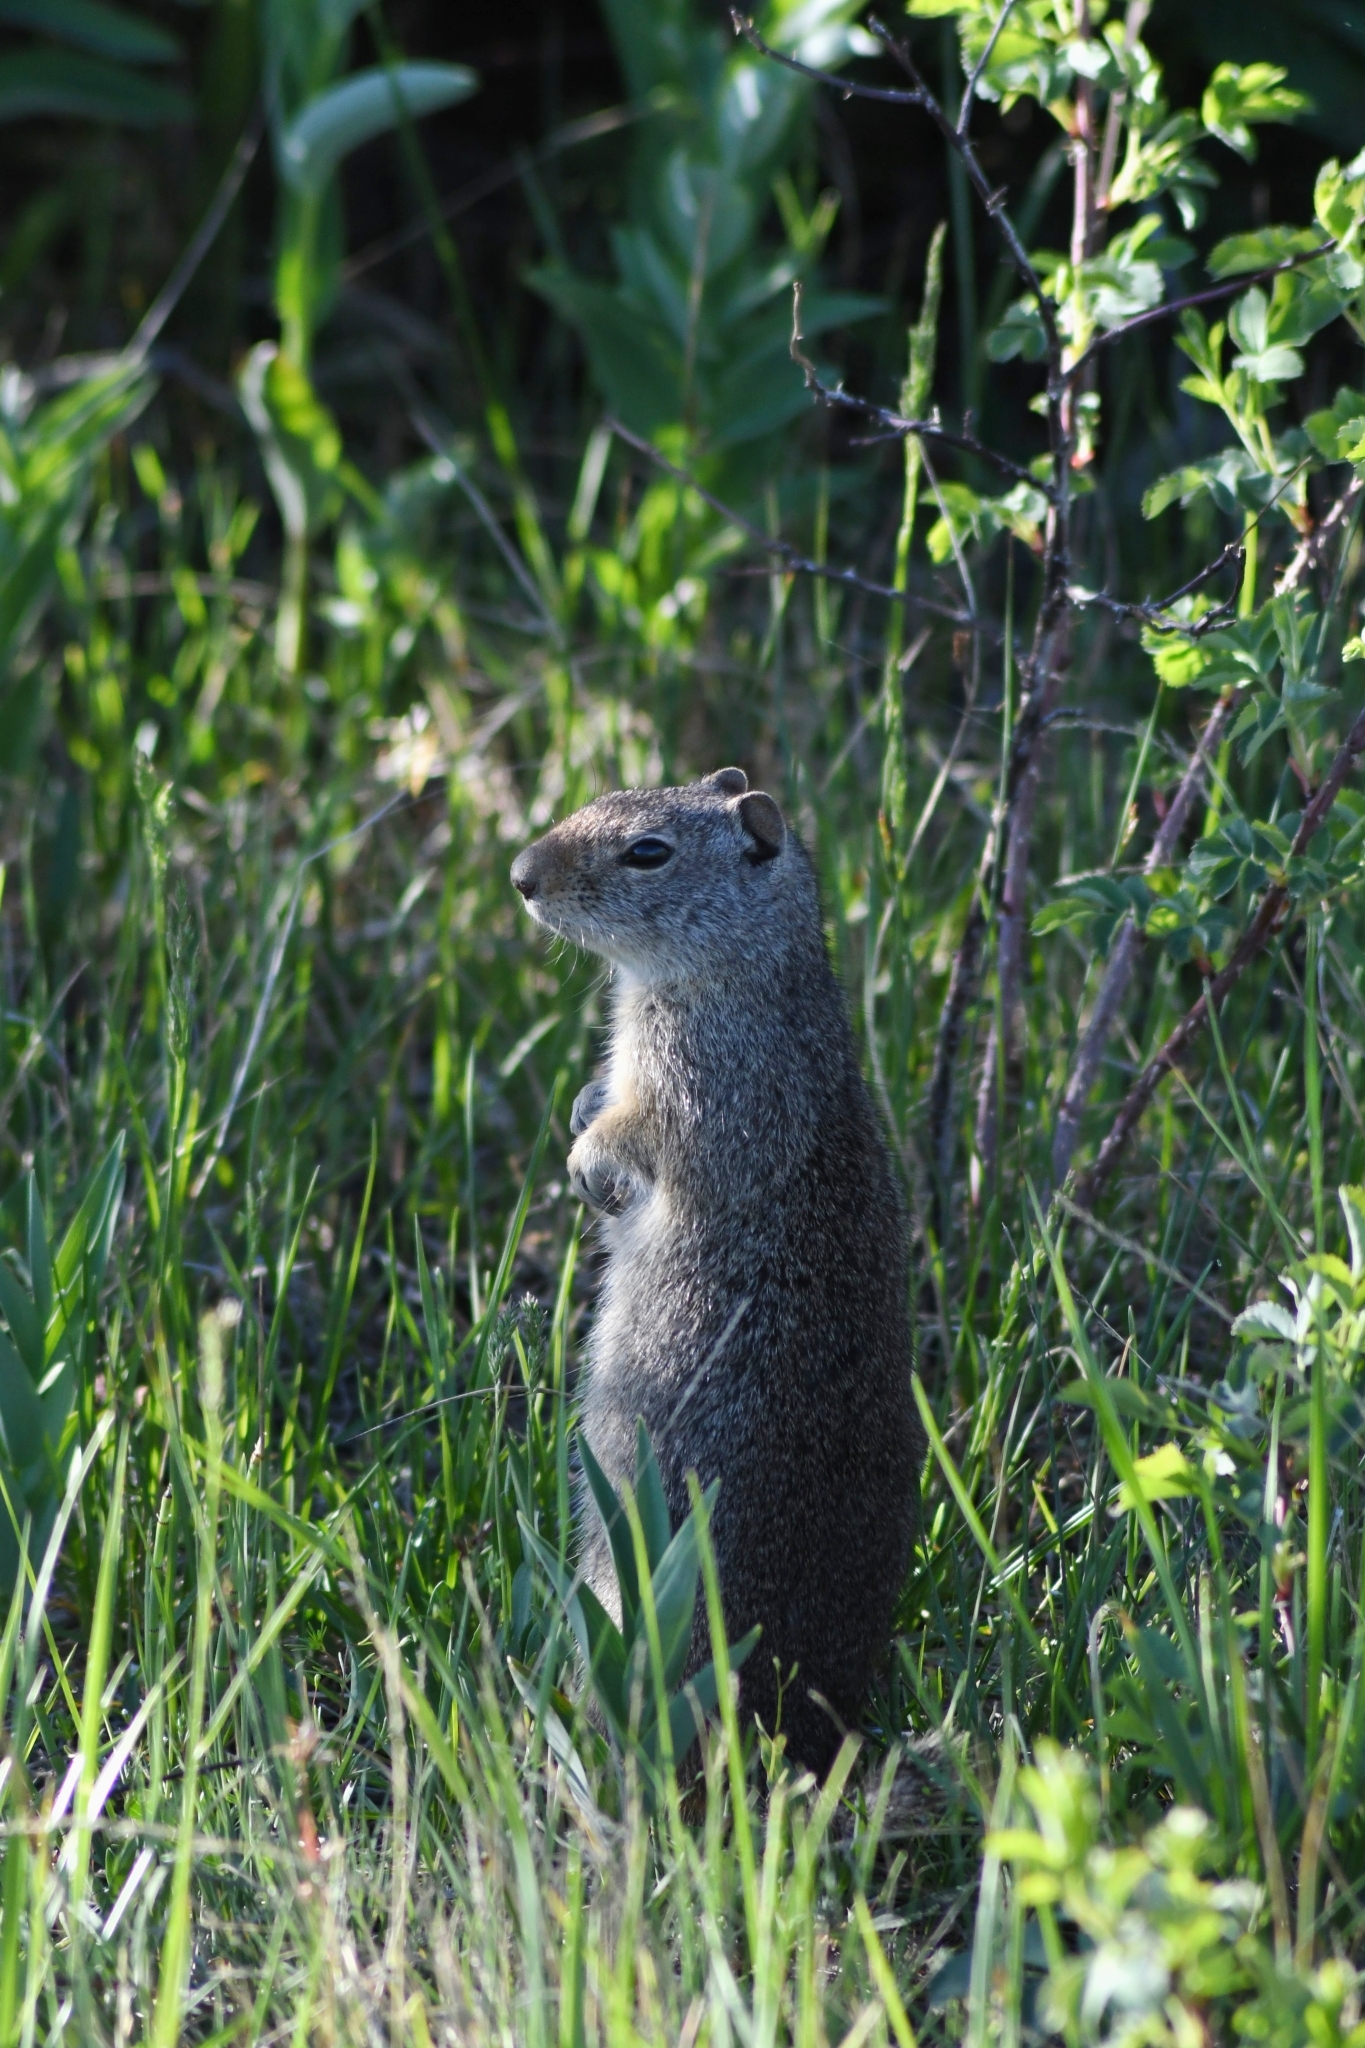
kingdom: Animalia
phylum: Chordata
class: Mammalia
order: Rodentia
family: Sciuridae
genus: Urocitellus
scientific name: Urocitellus armatus
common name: Uinta ground squirrel
